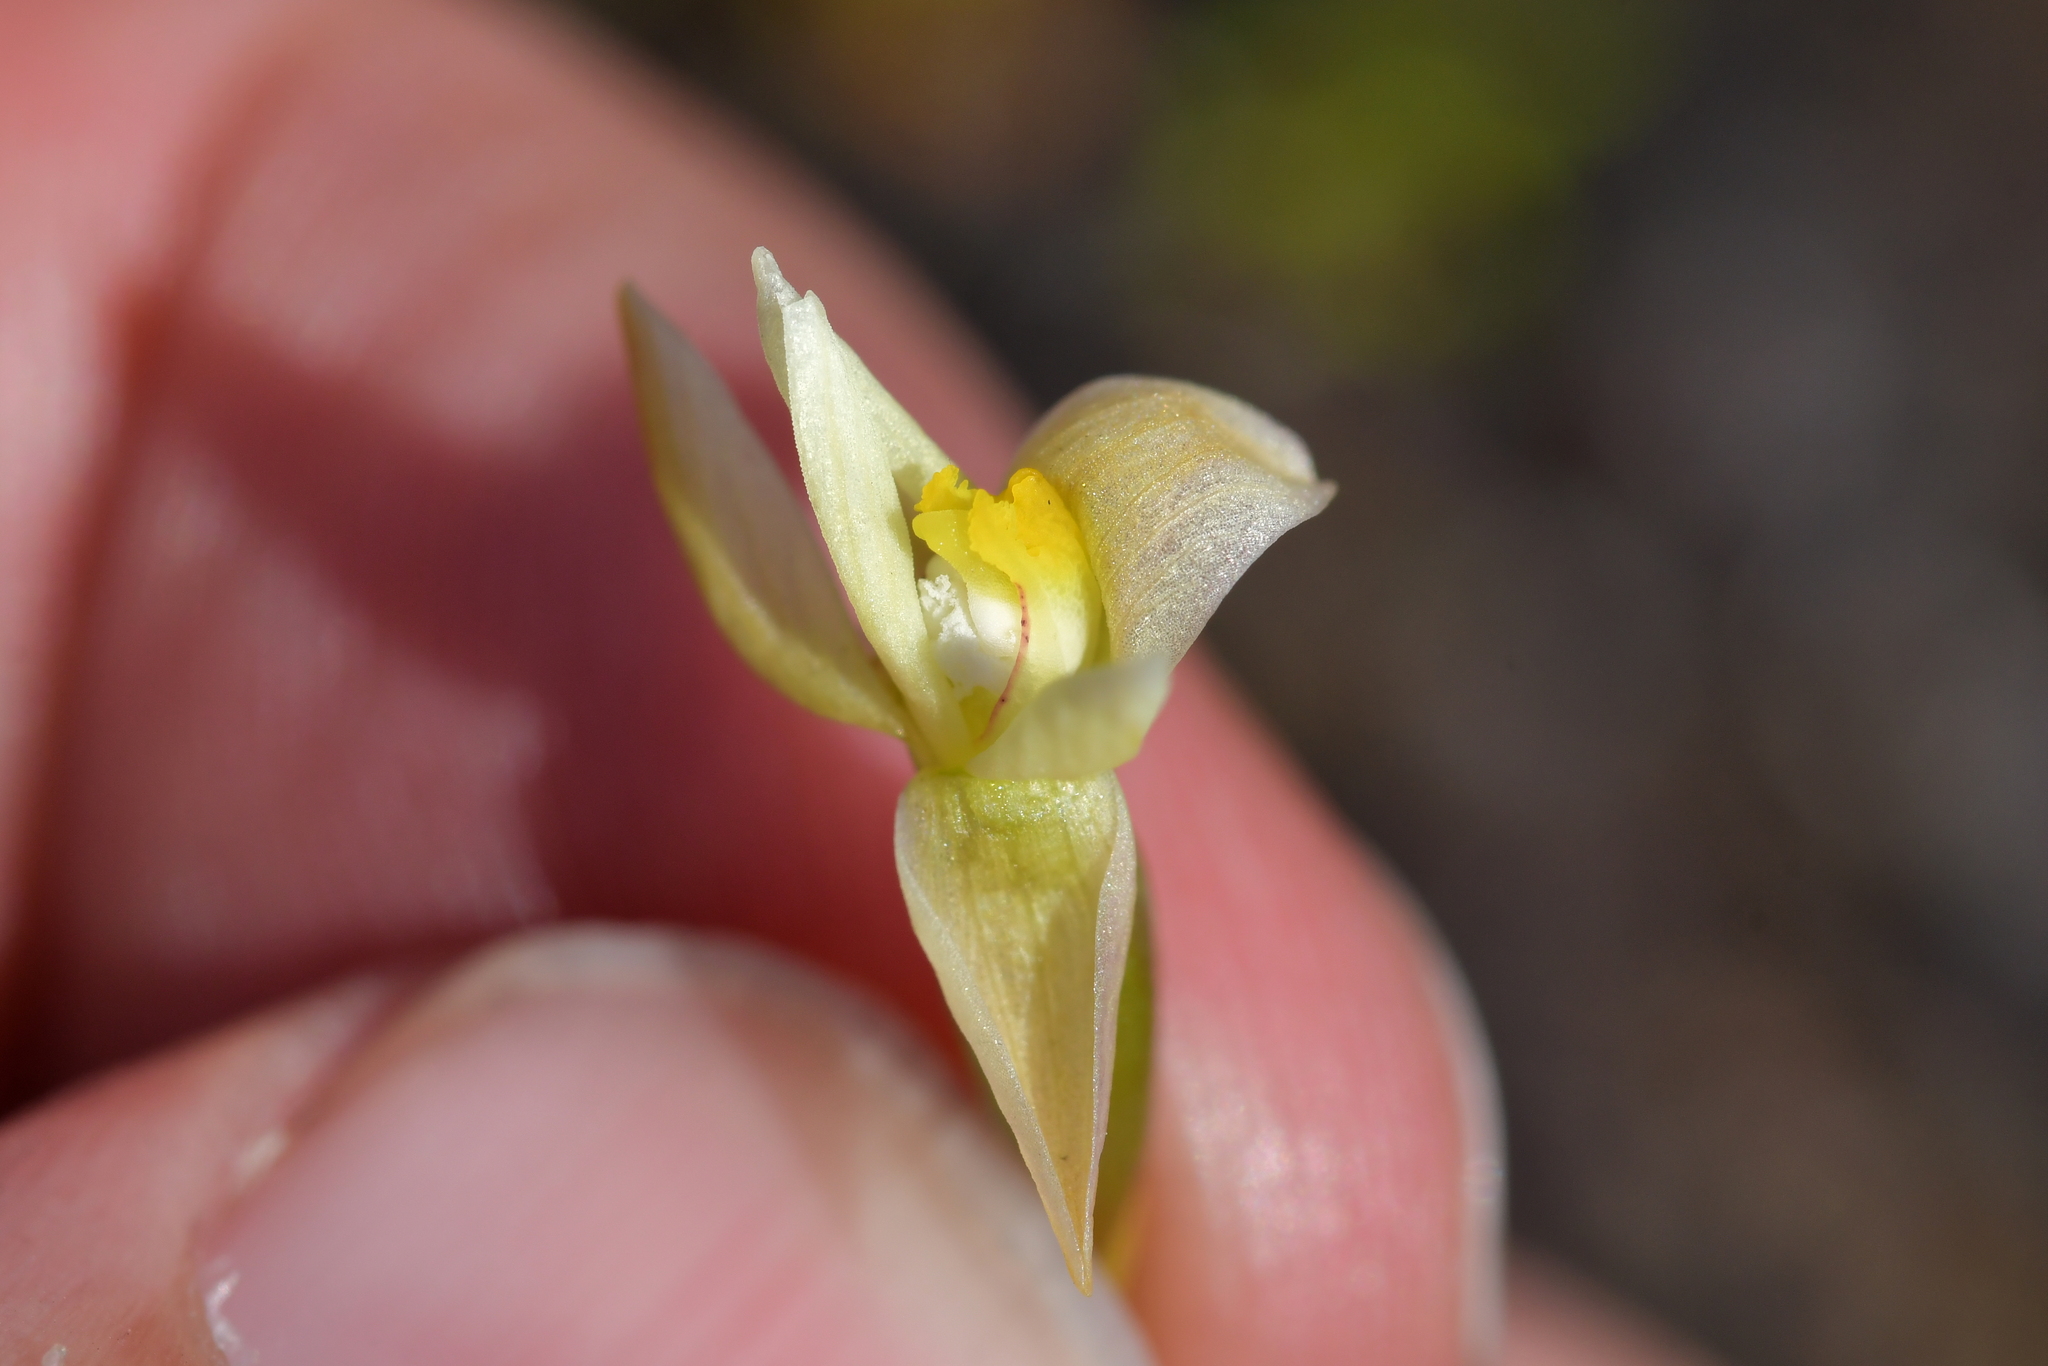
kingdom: Plantae
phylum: Tracheophyta
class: Liliopsida
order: Asparagales
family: Orchidaceae
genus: Thelymitra
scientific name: Thelymitra carnea
